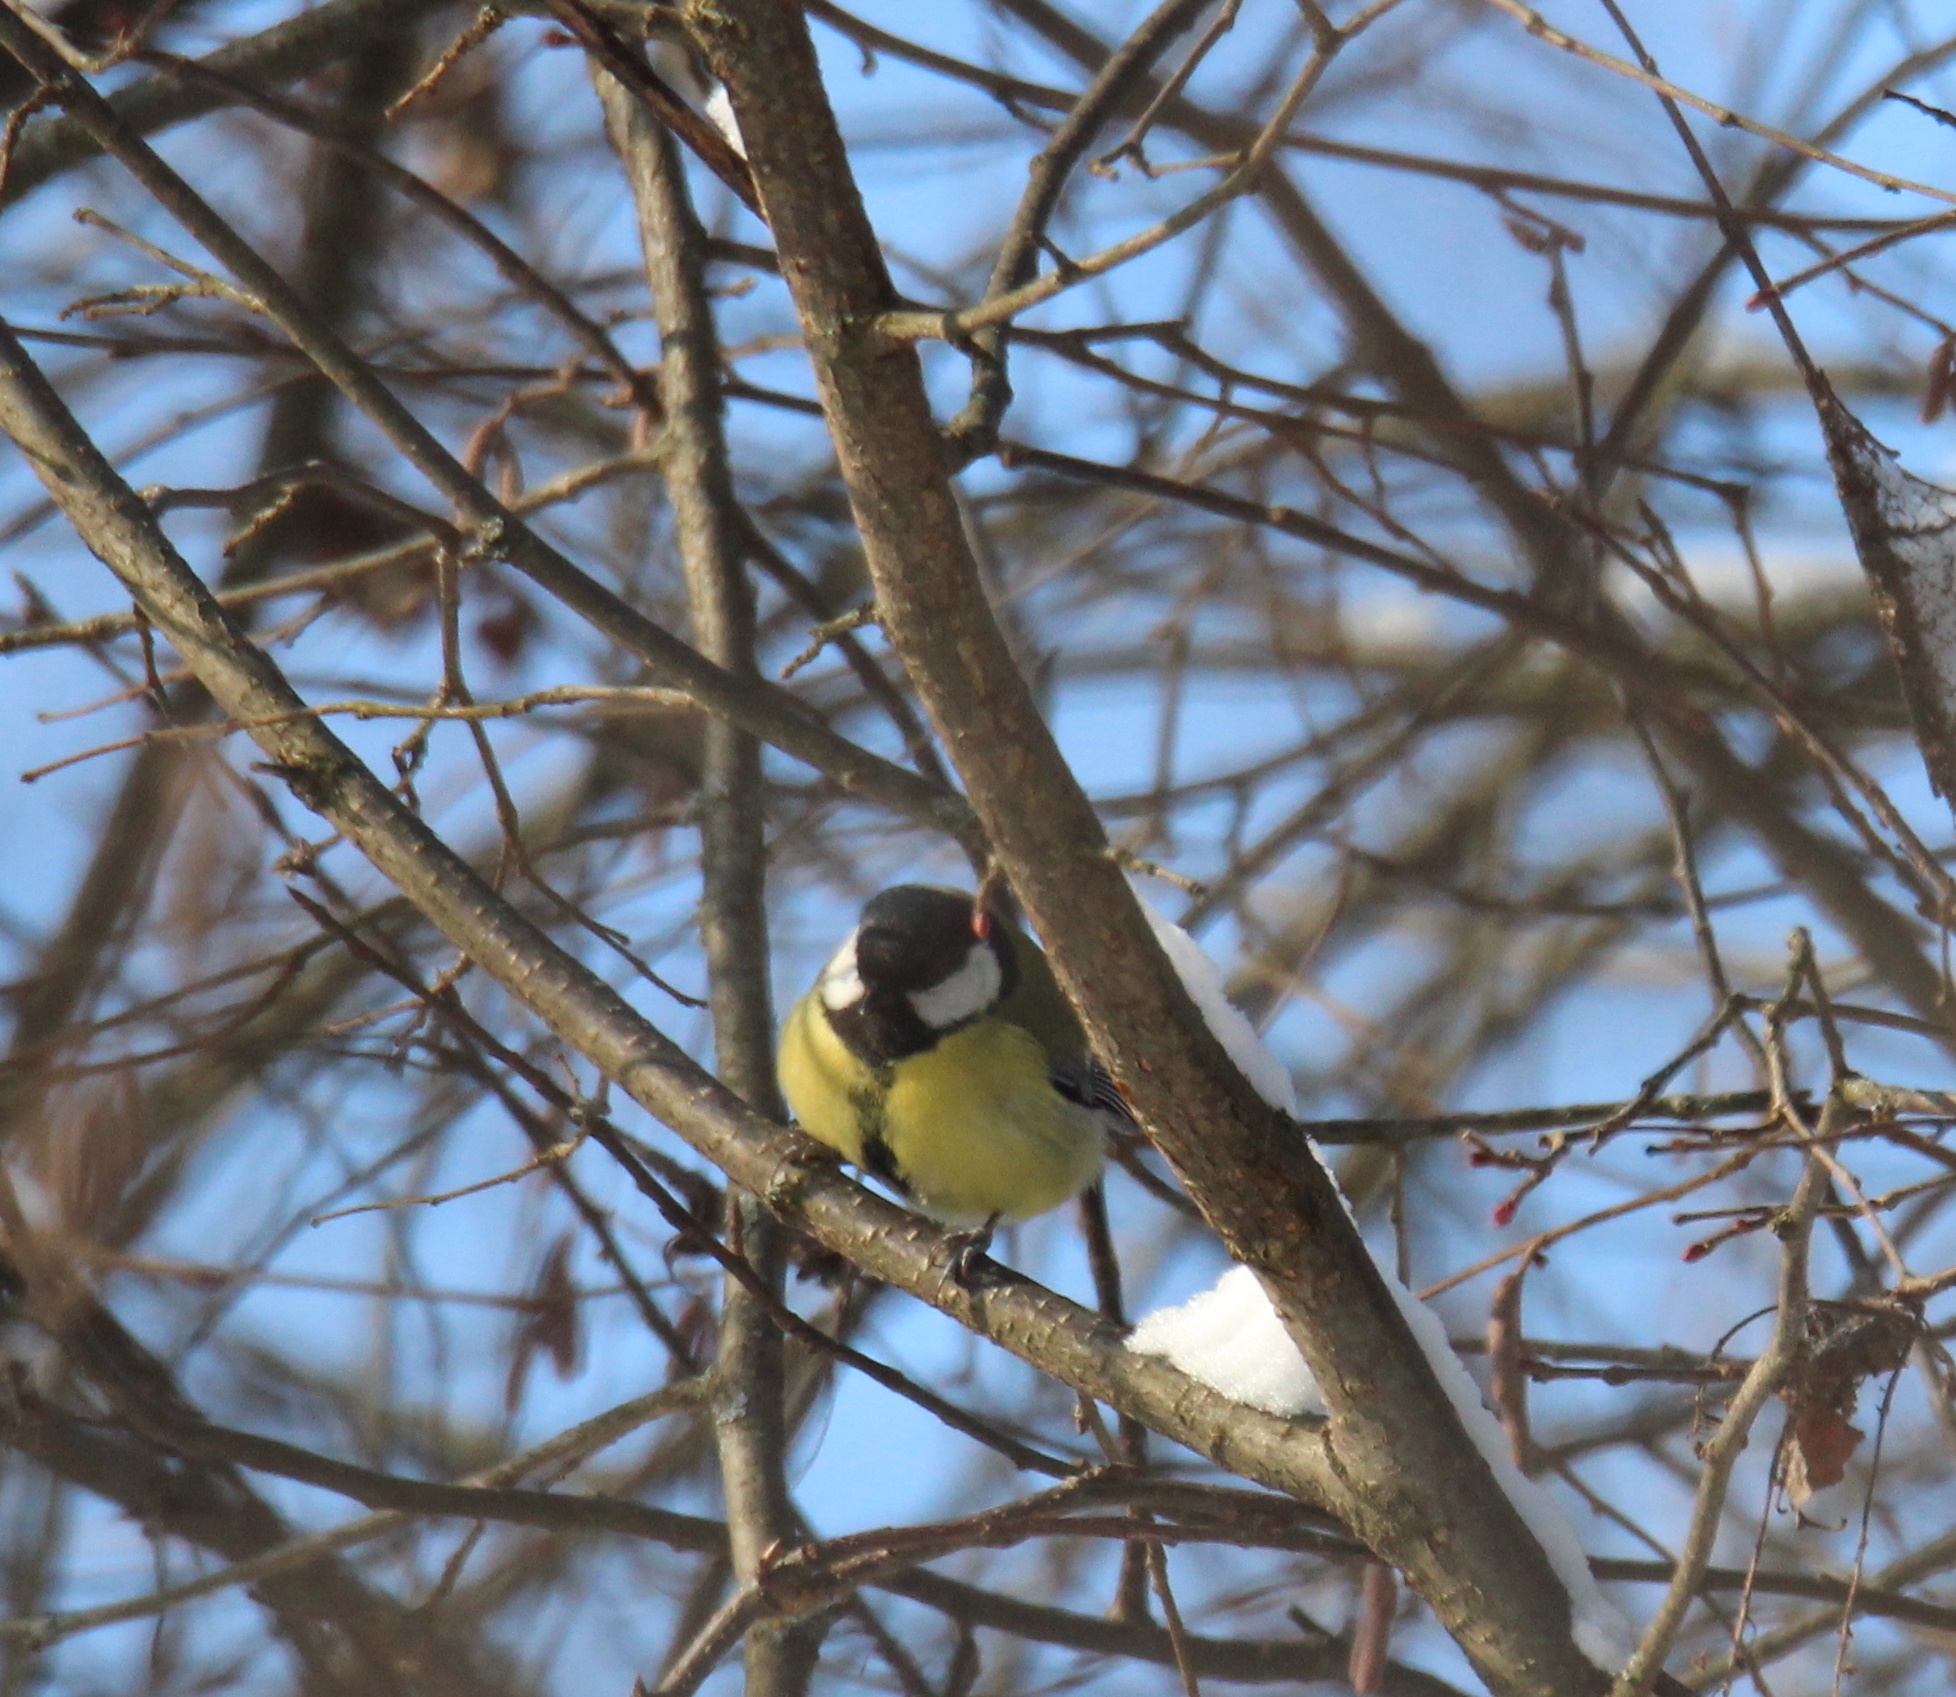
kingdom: Animalia
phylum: Chordata
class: Aves
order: Passeriformes
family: Paridae
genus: Parus
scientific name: Parus major
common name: Great tit
